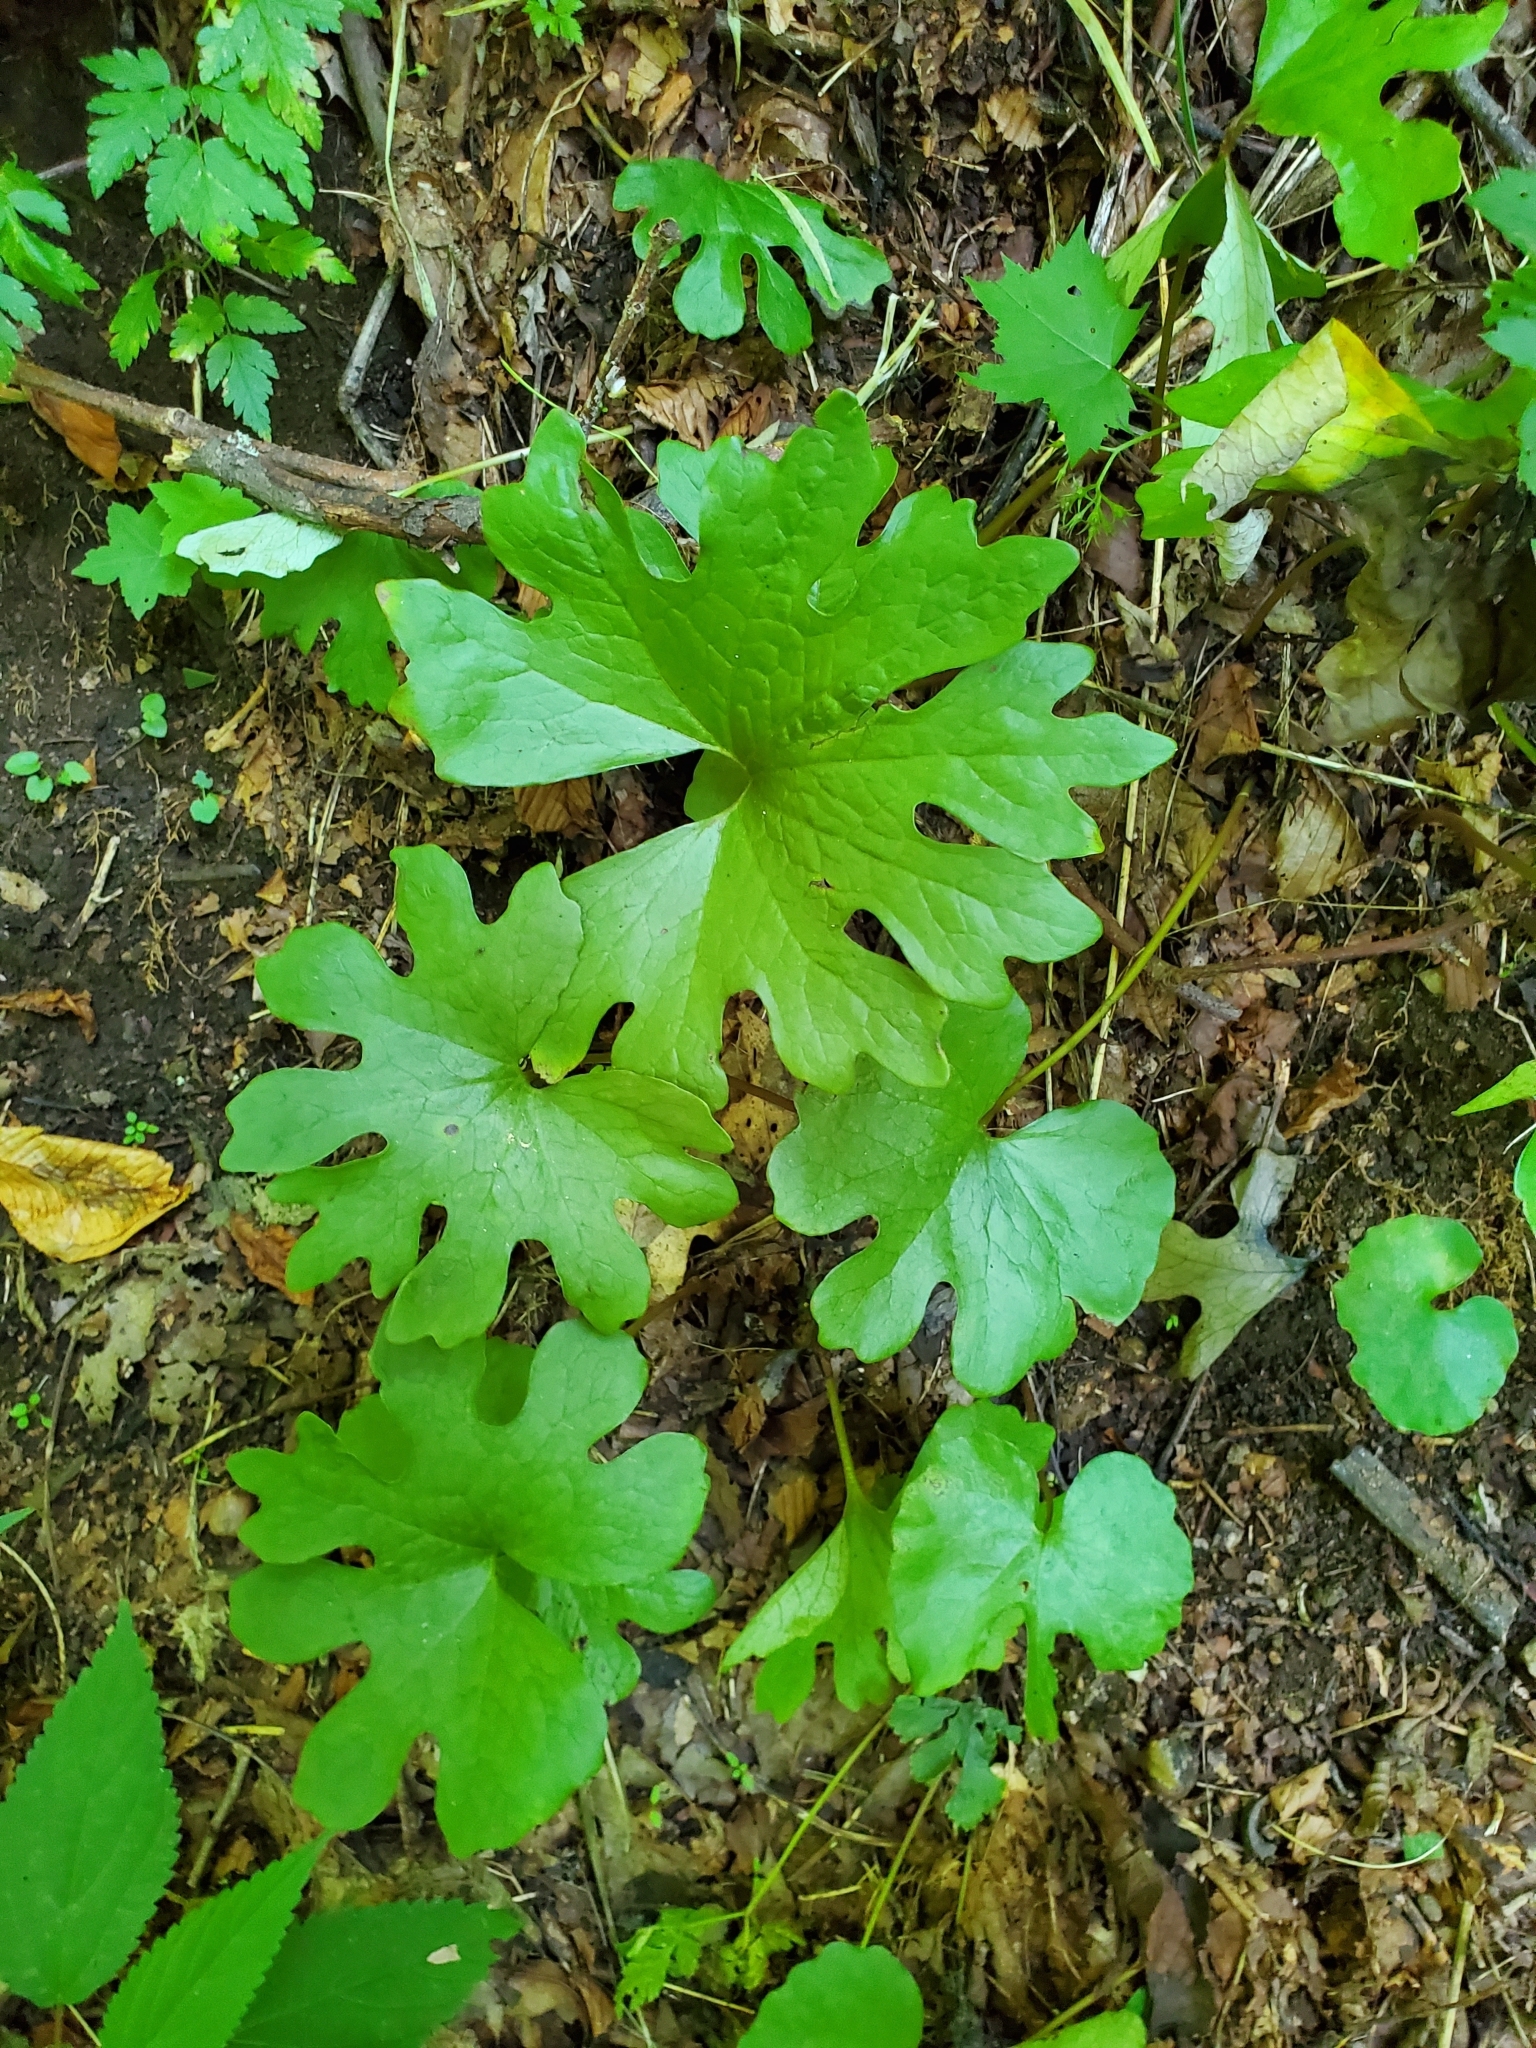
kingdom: Plantae
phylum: Tracheophyta
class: Magnoliopsida
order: Ranunculales
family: Papaveraceae
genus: Sanguinaria
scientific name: Sanguinaria canadensis
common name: Bloodroot
